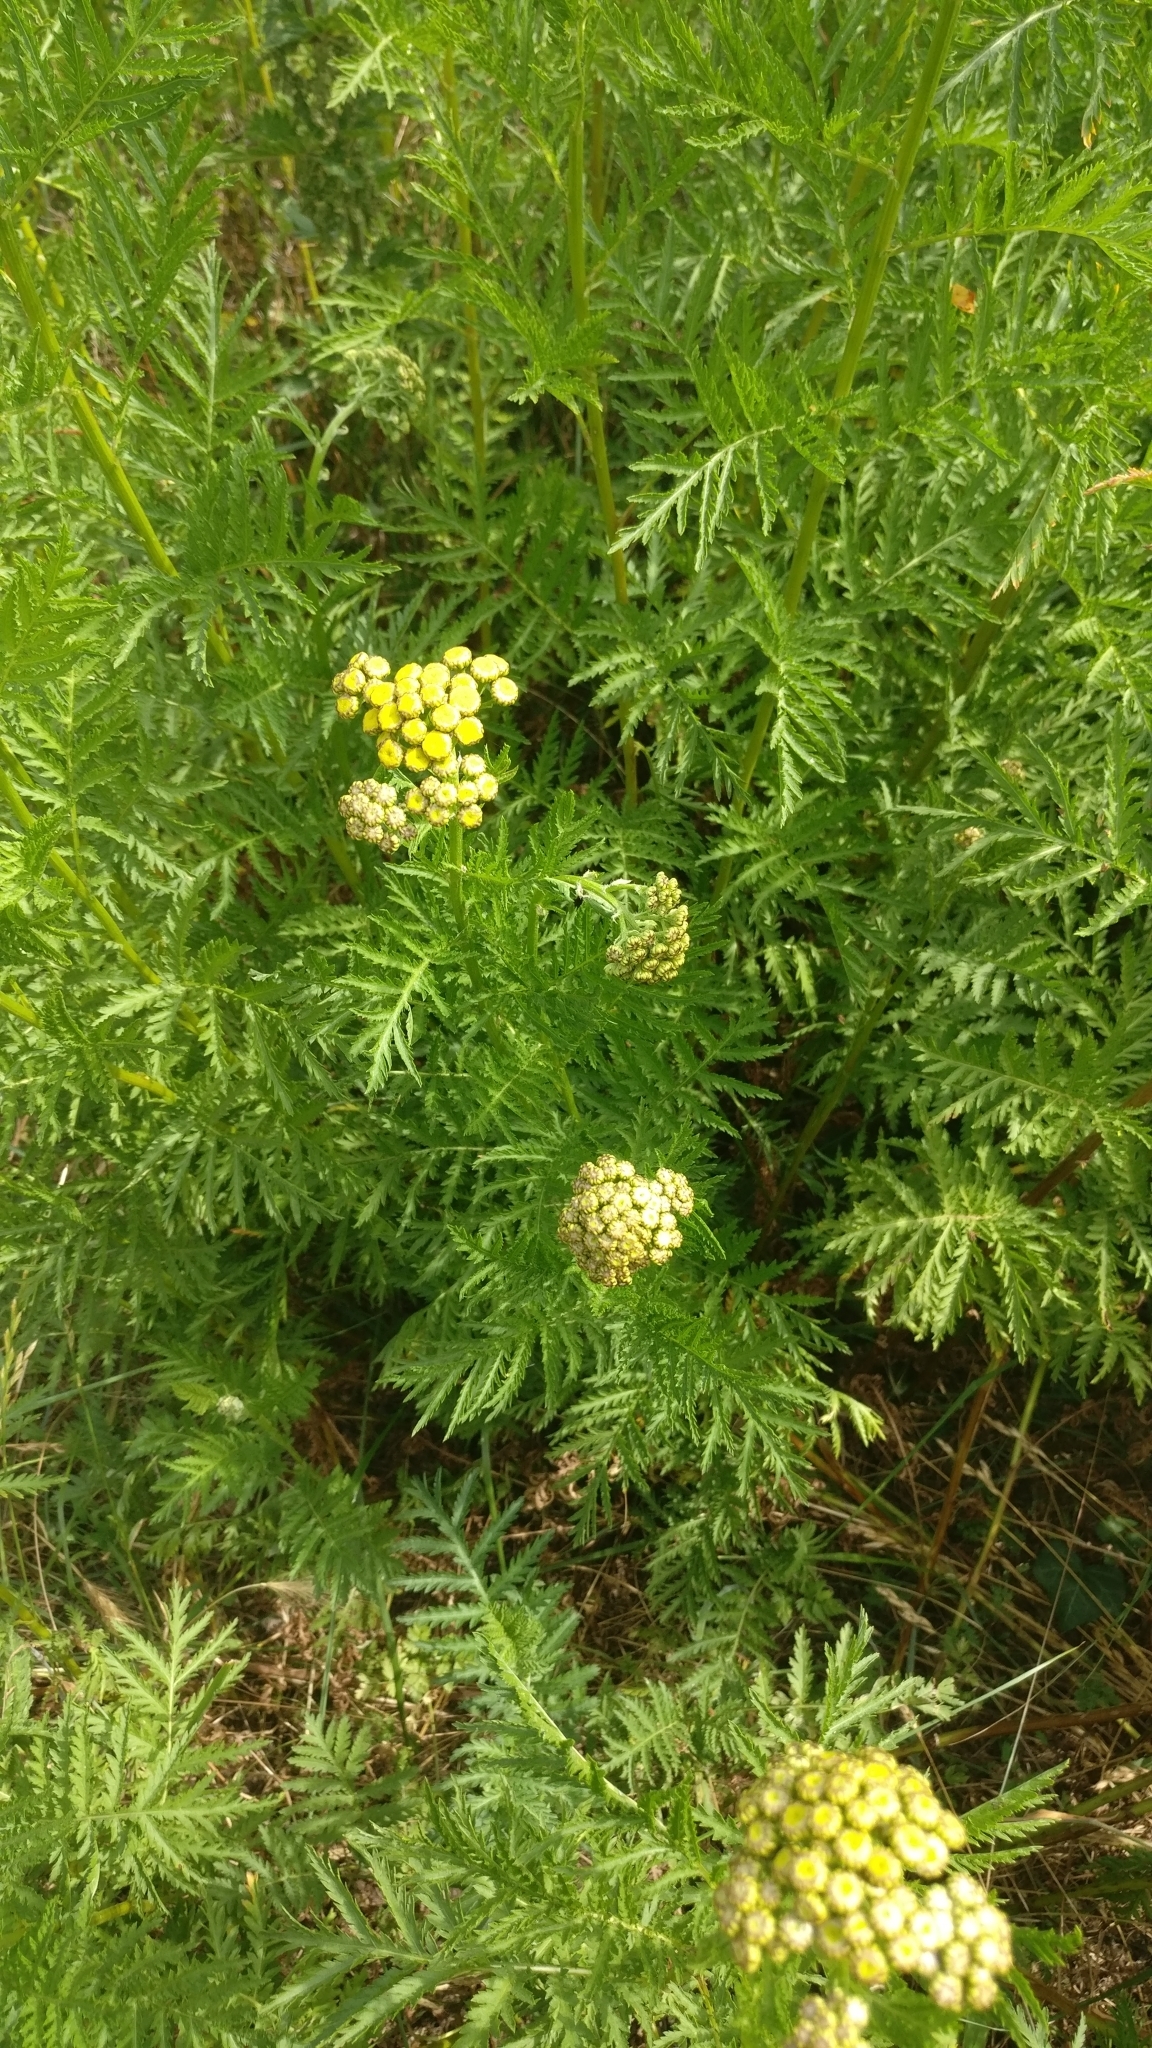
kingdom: Plantae
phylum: Tracheophyta
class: Magnoliopsida
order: Asterales
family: Asteraceae
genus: Tanacetum
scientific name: Tanacetum vulgare
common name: Common tansy
